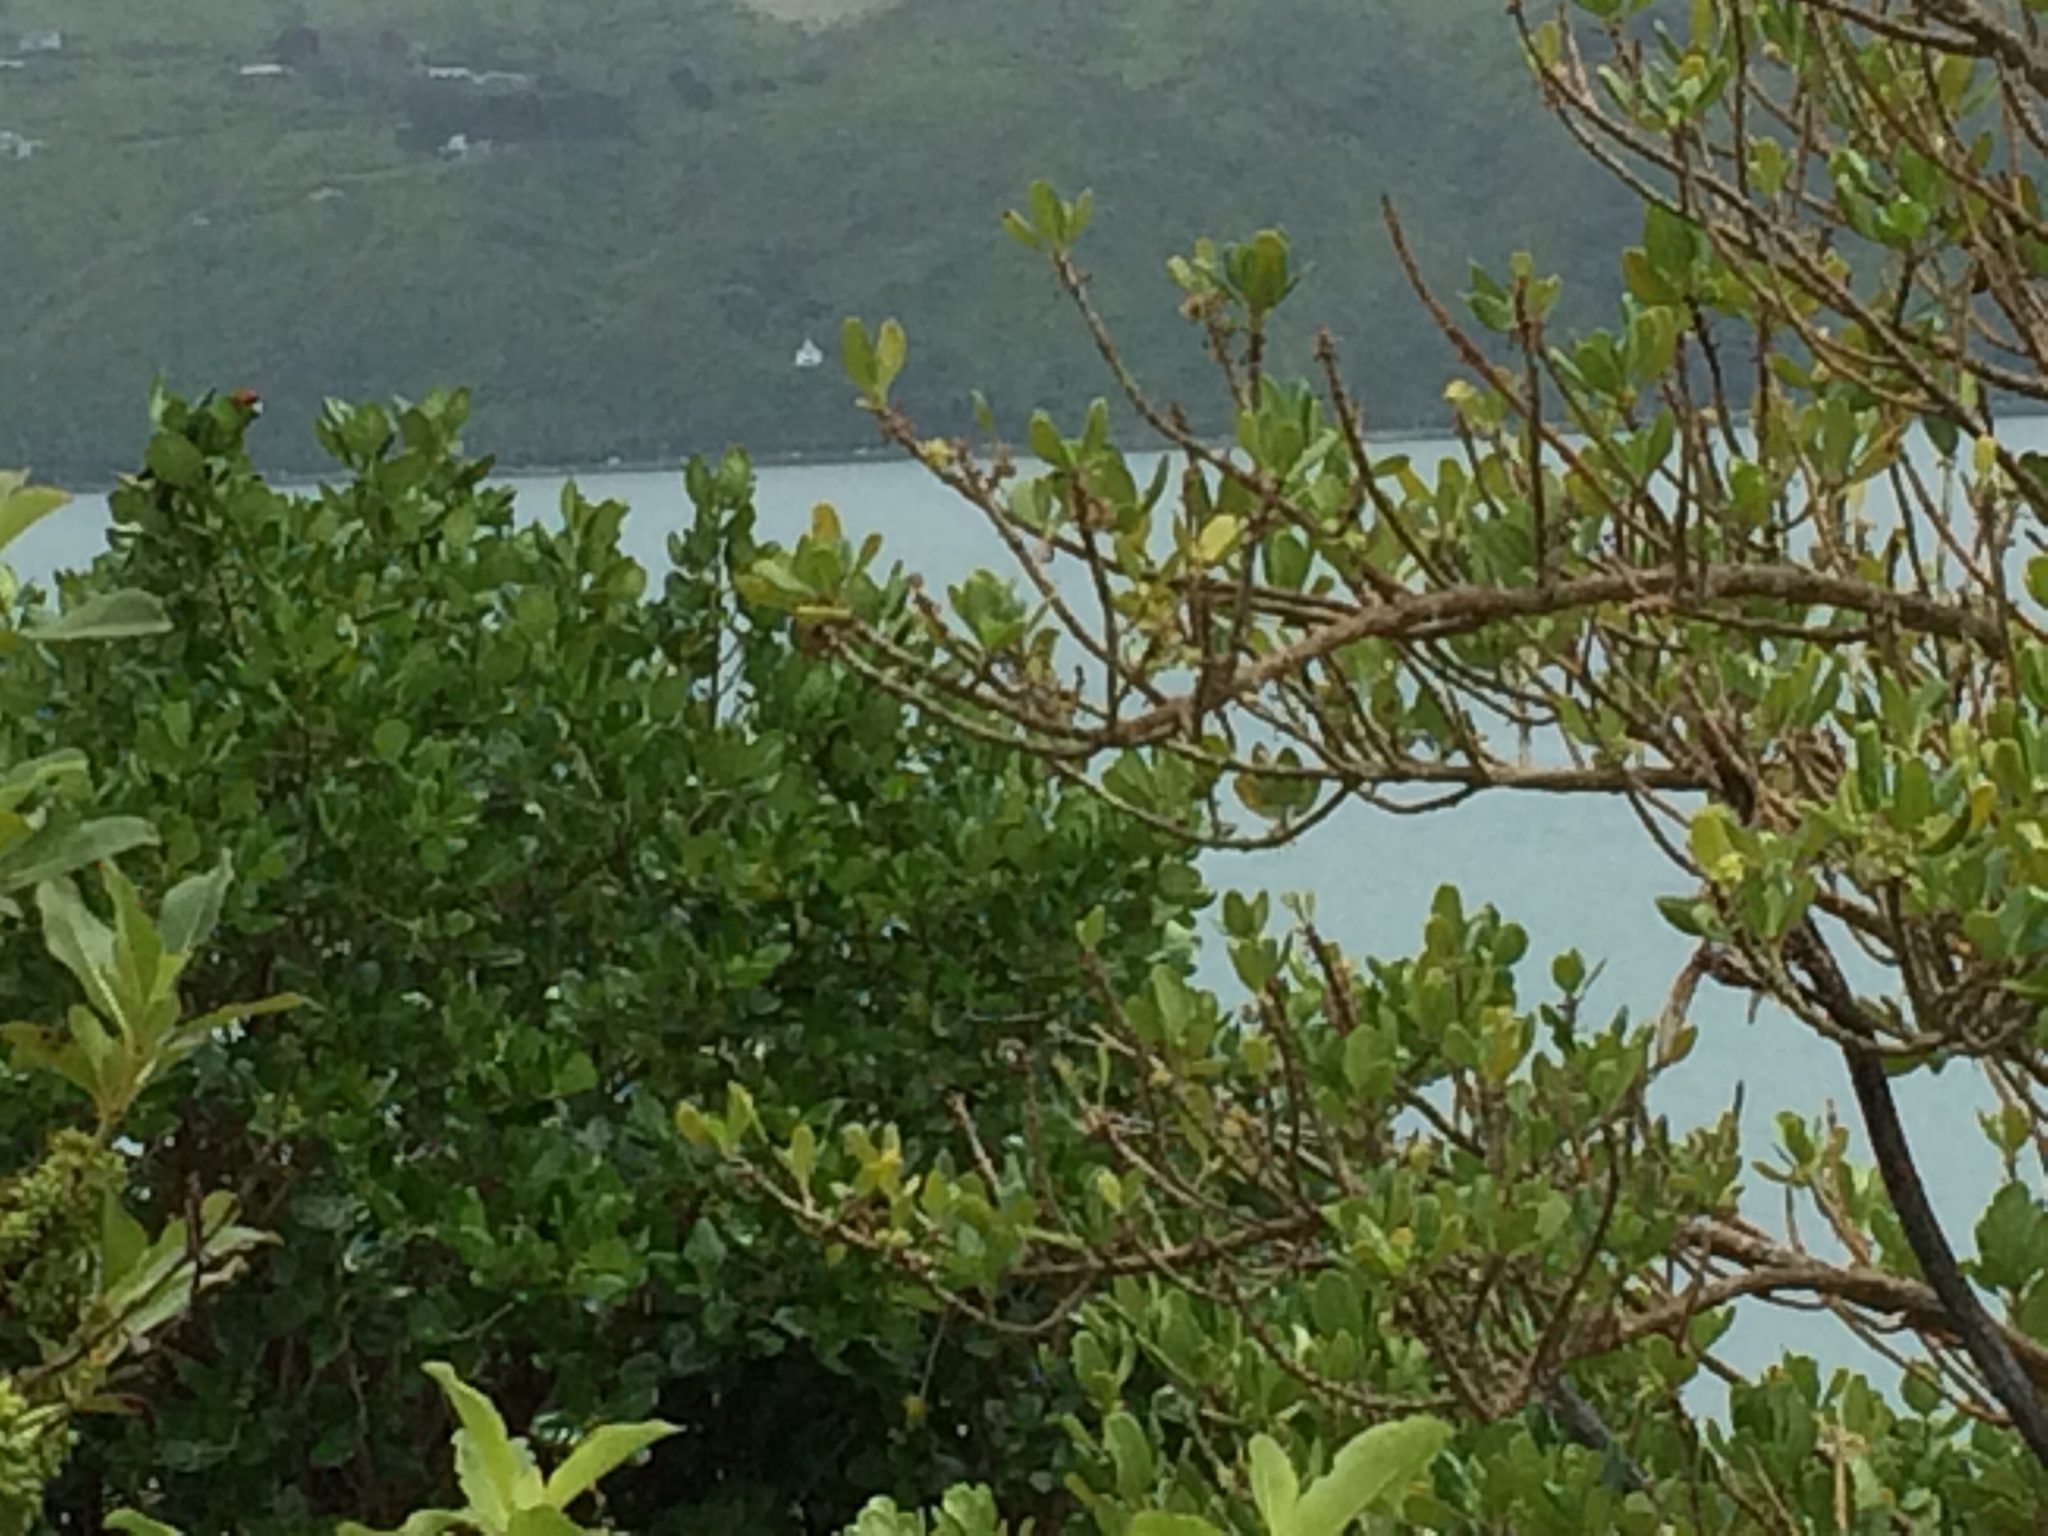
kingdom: Animalia
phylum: Chordata
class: Aves
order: Psittaciformes
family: Psittacidae
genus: Cyanoramphus
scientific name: Cyanoramphus novaezelandiae
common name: Red-fronted parakeet
